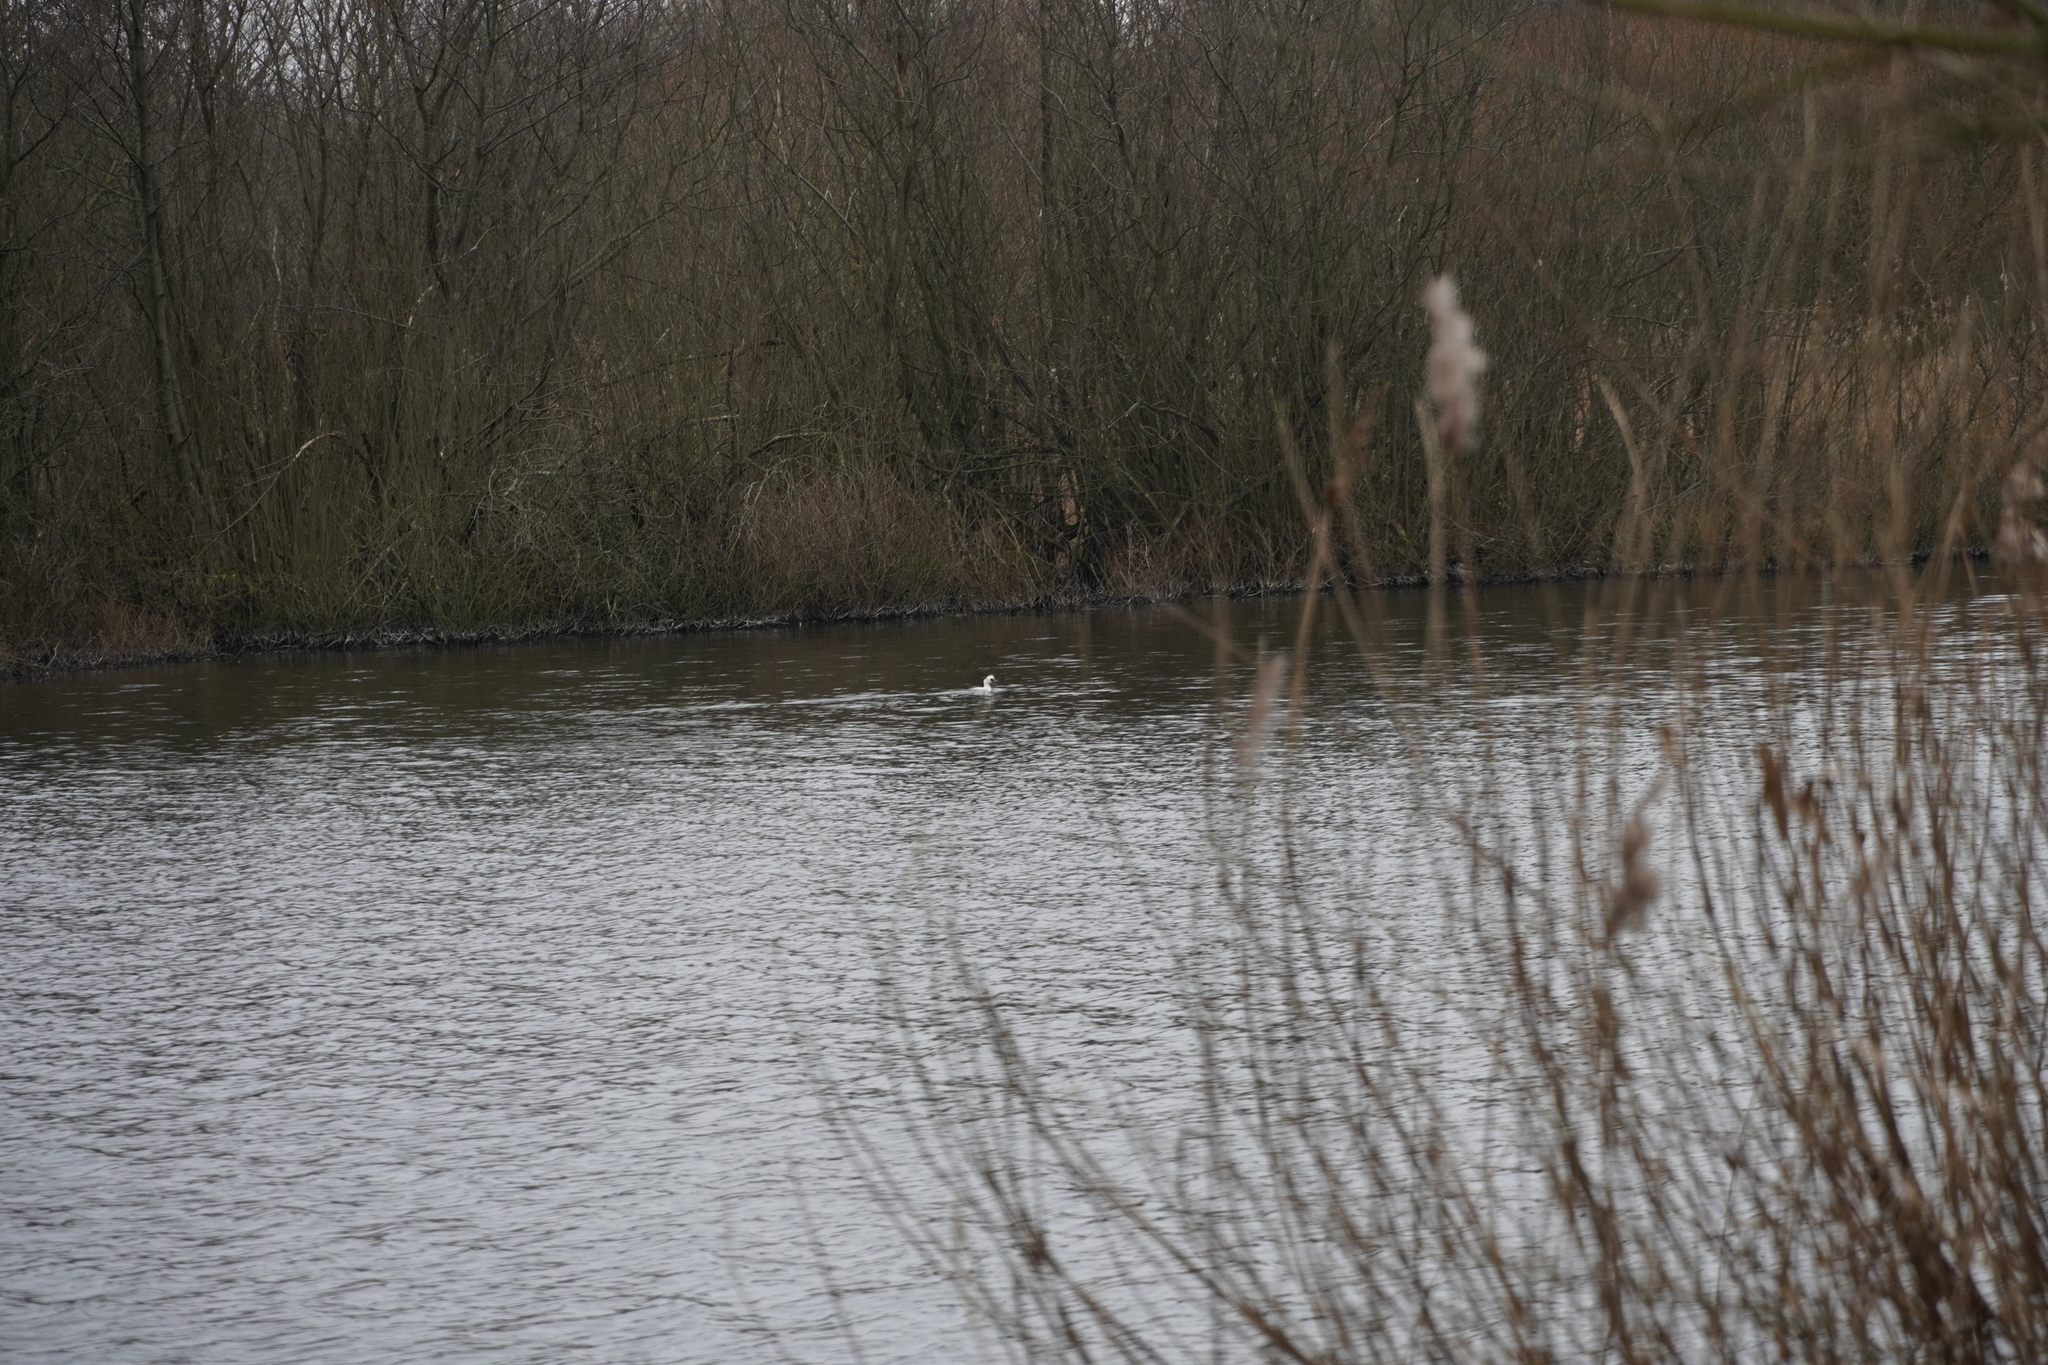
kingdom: Animalia
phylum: Chordata
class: Aves
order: Anseriformes
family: Anatidae
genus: Mergellus
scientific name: Mergellus albellus
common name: Smew
